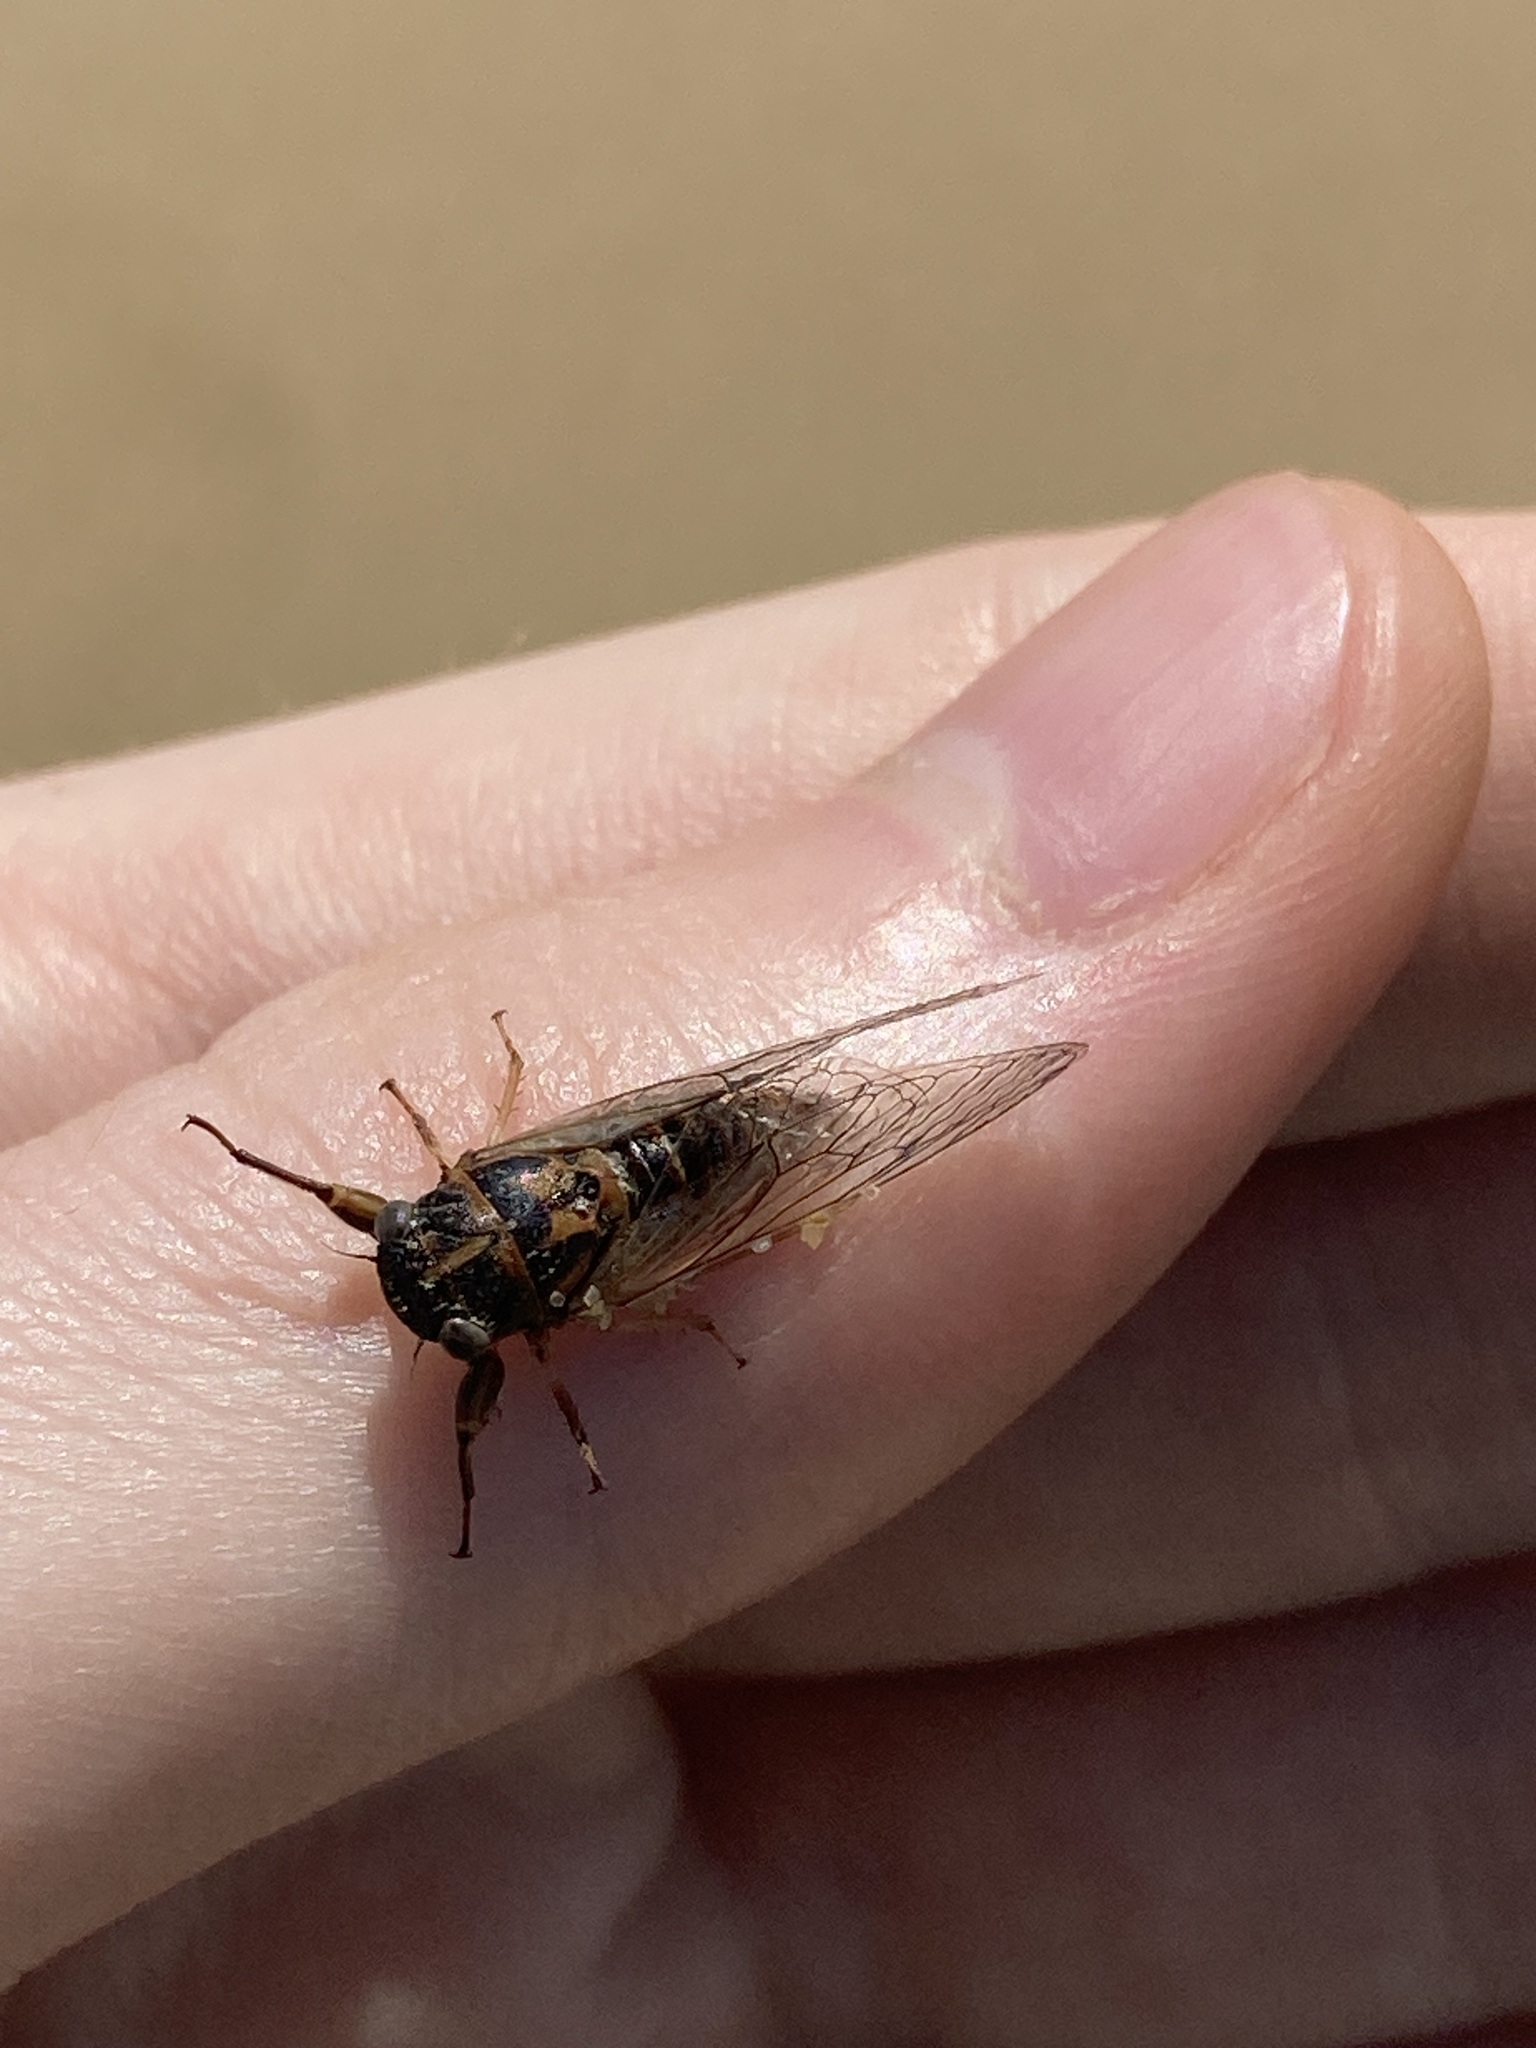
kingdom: Animalia
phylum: Arthropoda
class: Insecta
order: Hemiptera
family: Cicadidae
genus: Palapsalta
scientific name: Palapsalta circumdata
